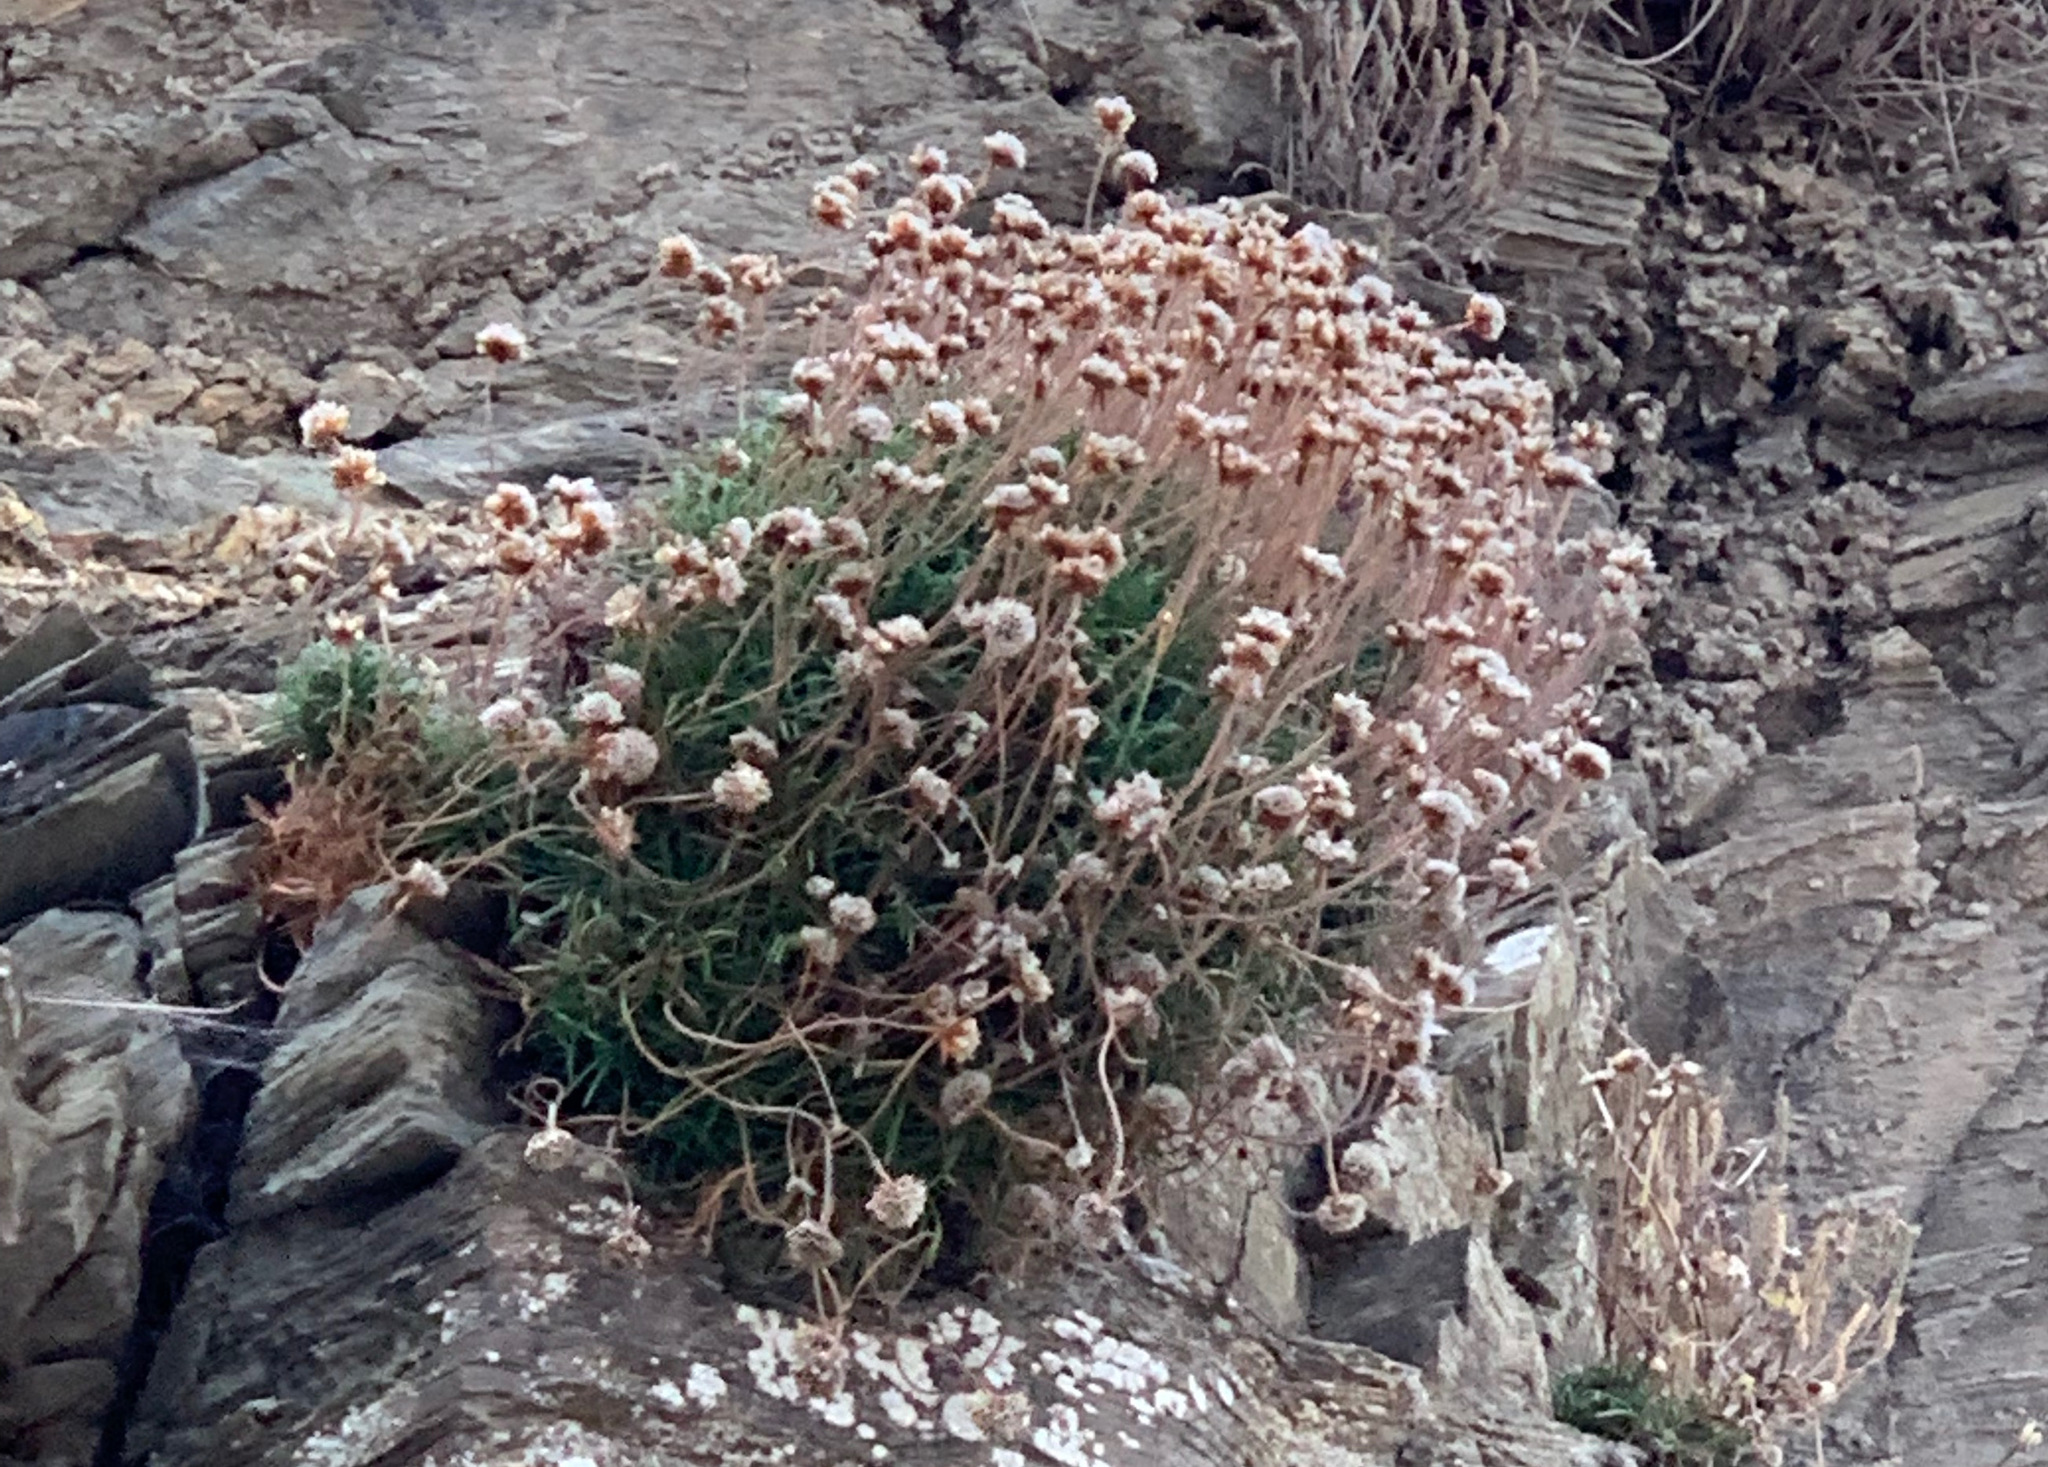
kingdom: Plantae
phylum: Tracheophyta
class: Magnoliopsida
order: Caryophyllales
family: Plumbaginaceae
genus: Armeria
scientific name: Armeria maritima
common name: Thrift
